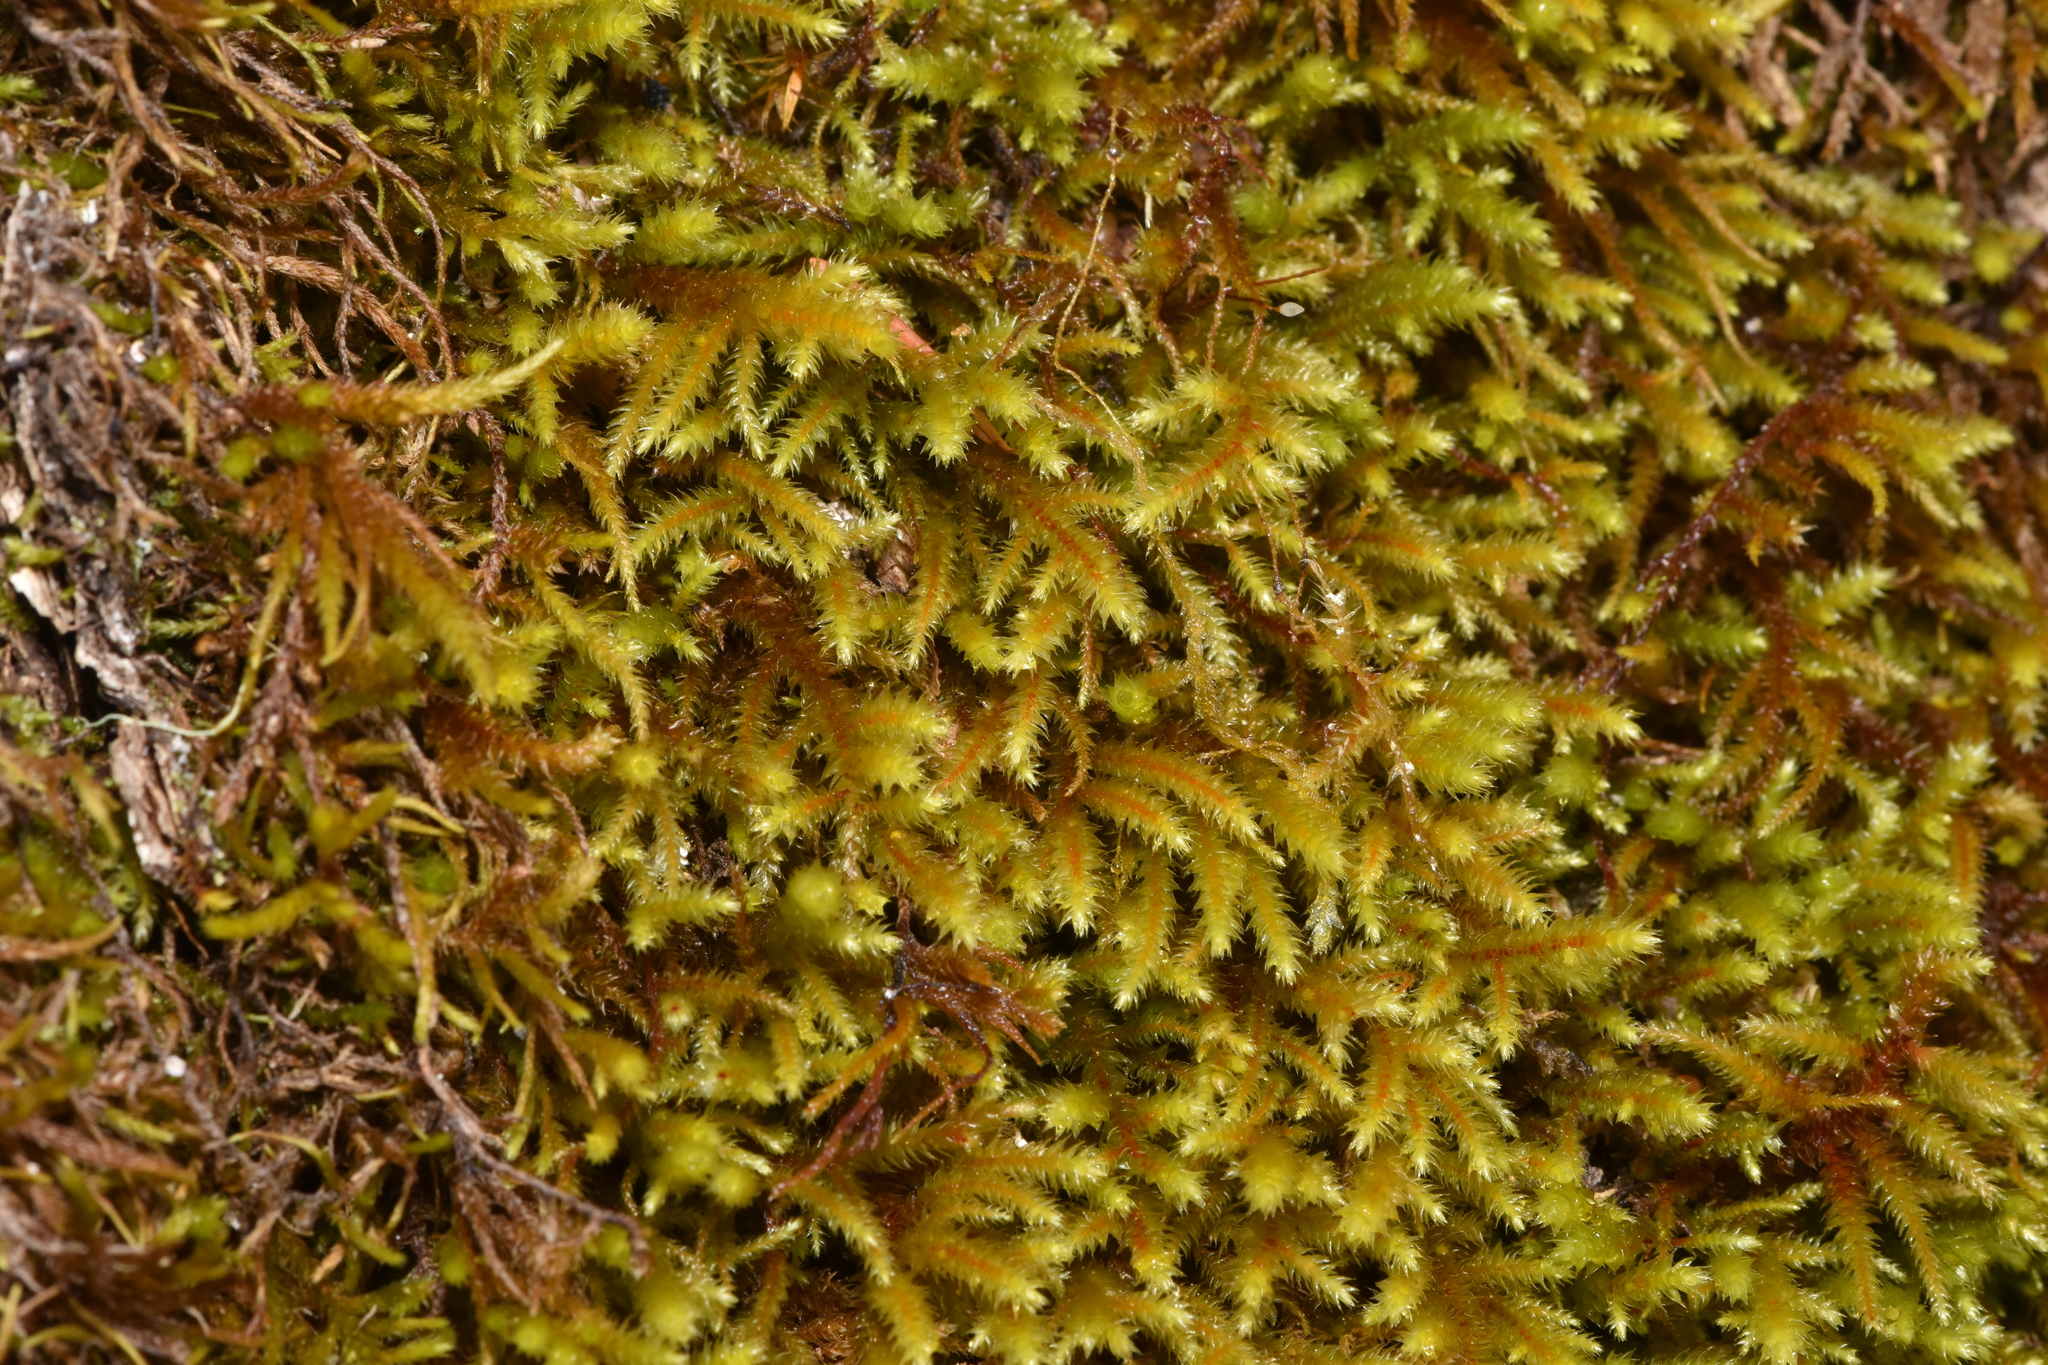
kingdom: Plantae
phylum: Bryophyta
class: Bryopsida
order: Hypnales
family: Antitrichiaceae
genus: Antitrichia
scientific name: Antitrichia californica
